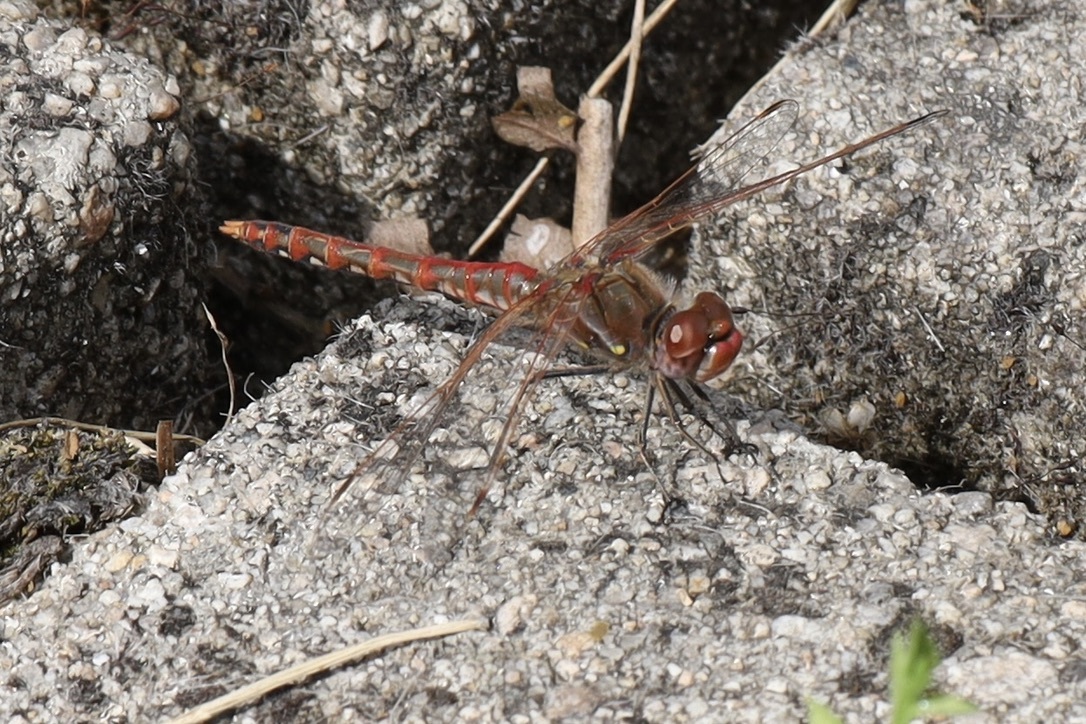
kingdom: Animalia
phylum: Arthropoda
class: Insecta
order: Odonata
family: Libellulidae
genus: Sympetrum
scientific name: Sympetrum corruptum
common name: Variegated meadowhawk
